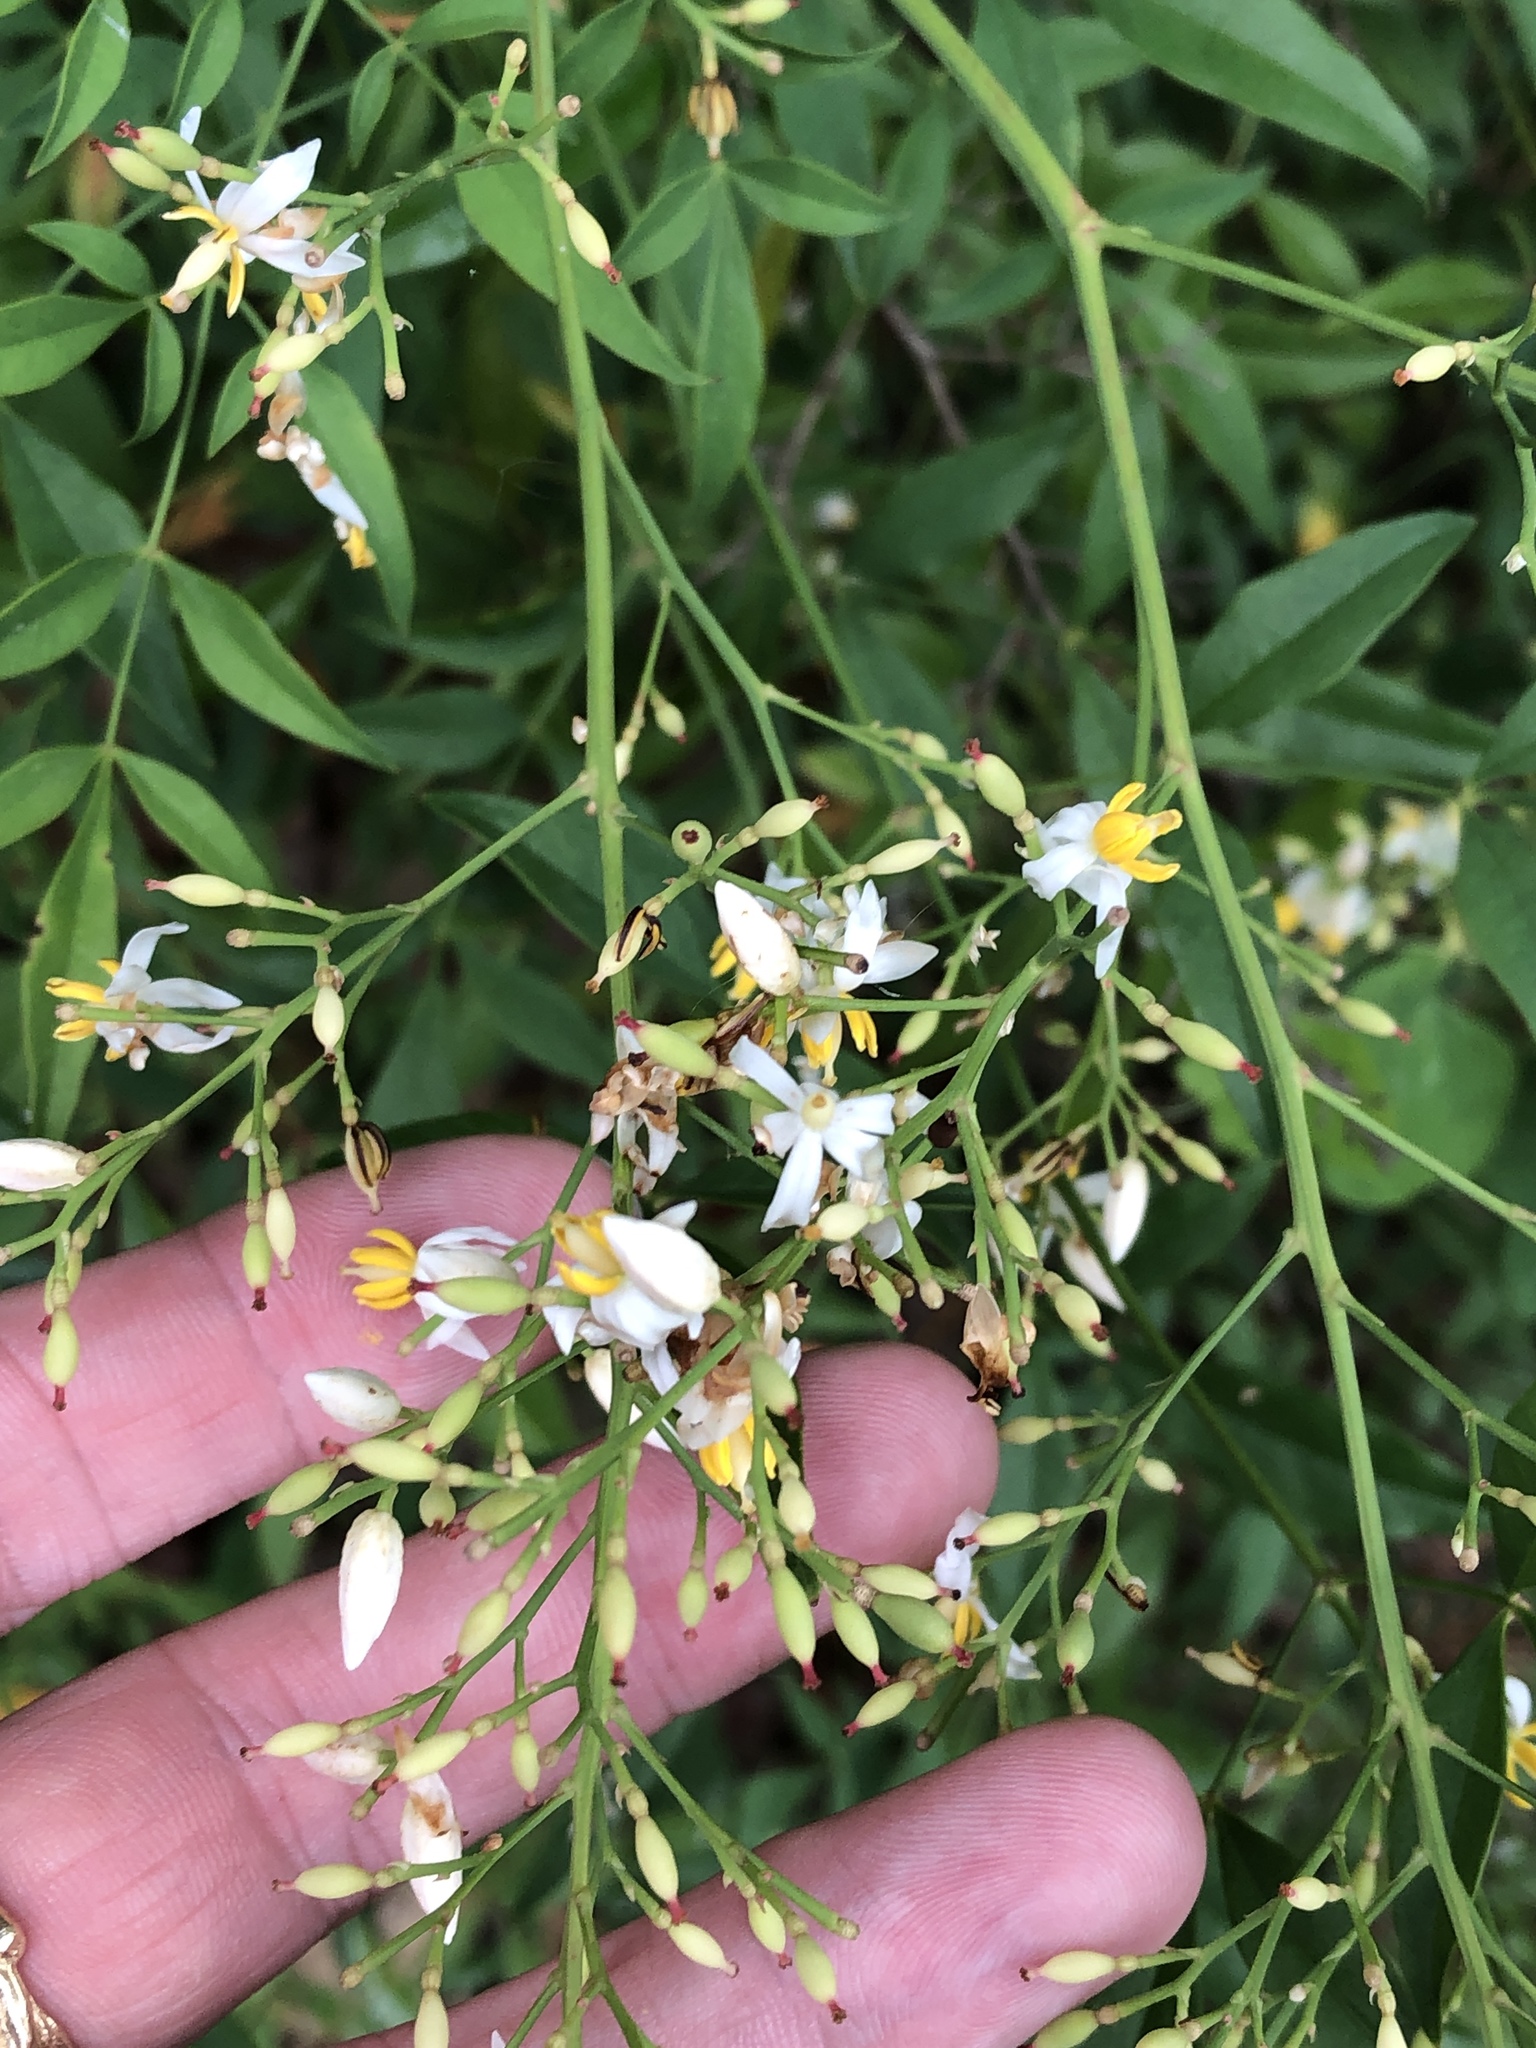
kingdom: Plantae
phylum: Tracheophyta
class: Magnoliopsida
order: Ranunculales
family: Berberidaceae
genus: Nandina
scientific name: Nandina domestica
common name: Sacred bamboo
